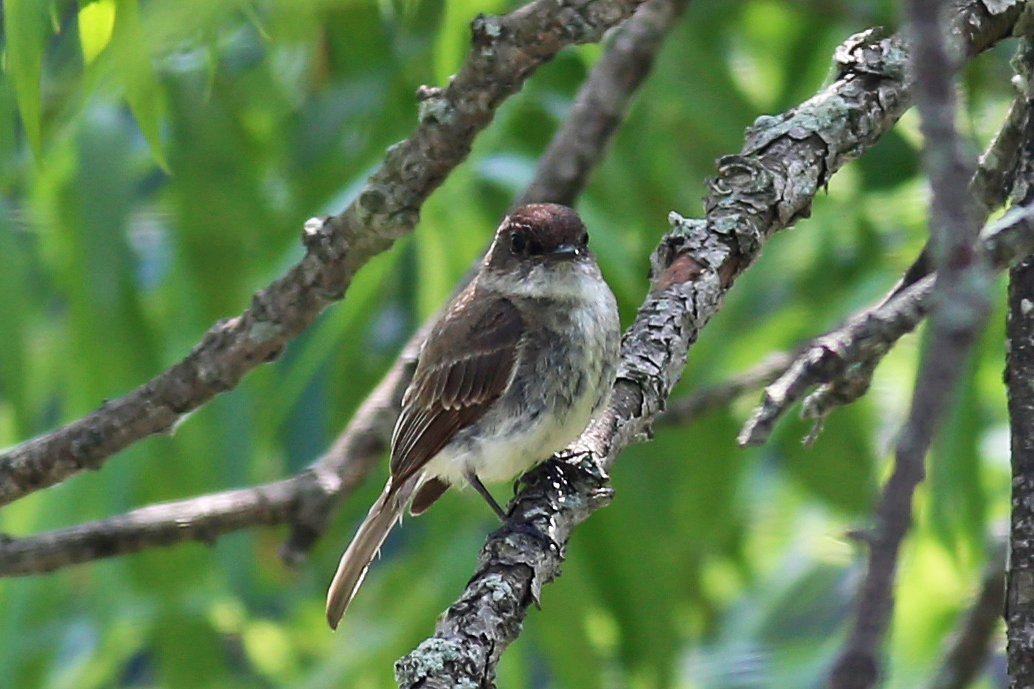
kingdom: Animalia
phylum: Chordata
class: Aves
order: Passeriformes
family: Tyrannidae
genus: Sayornis
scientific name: Sayornis phoebe
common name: Eastern phoebe
